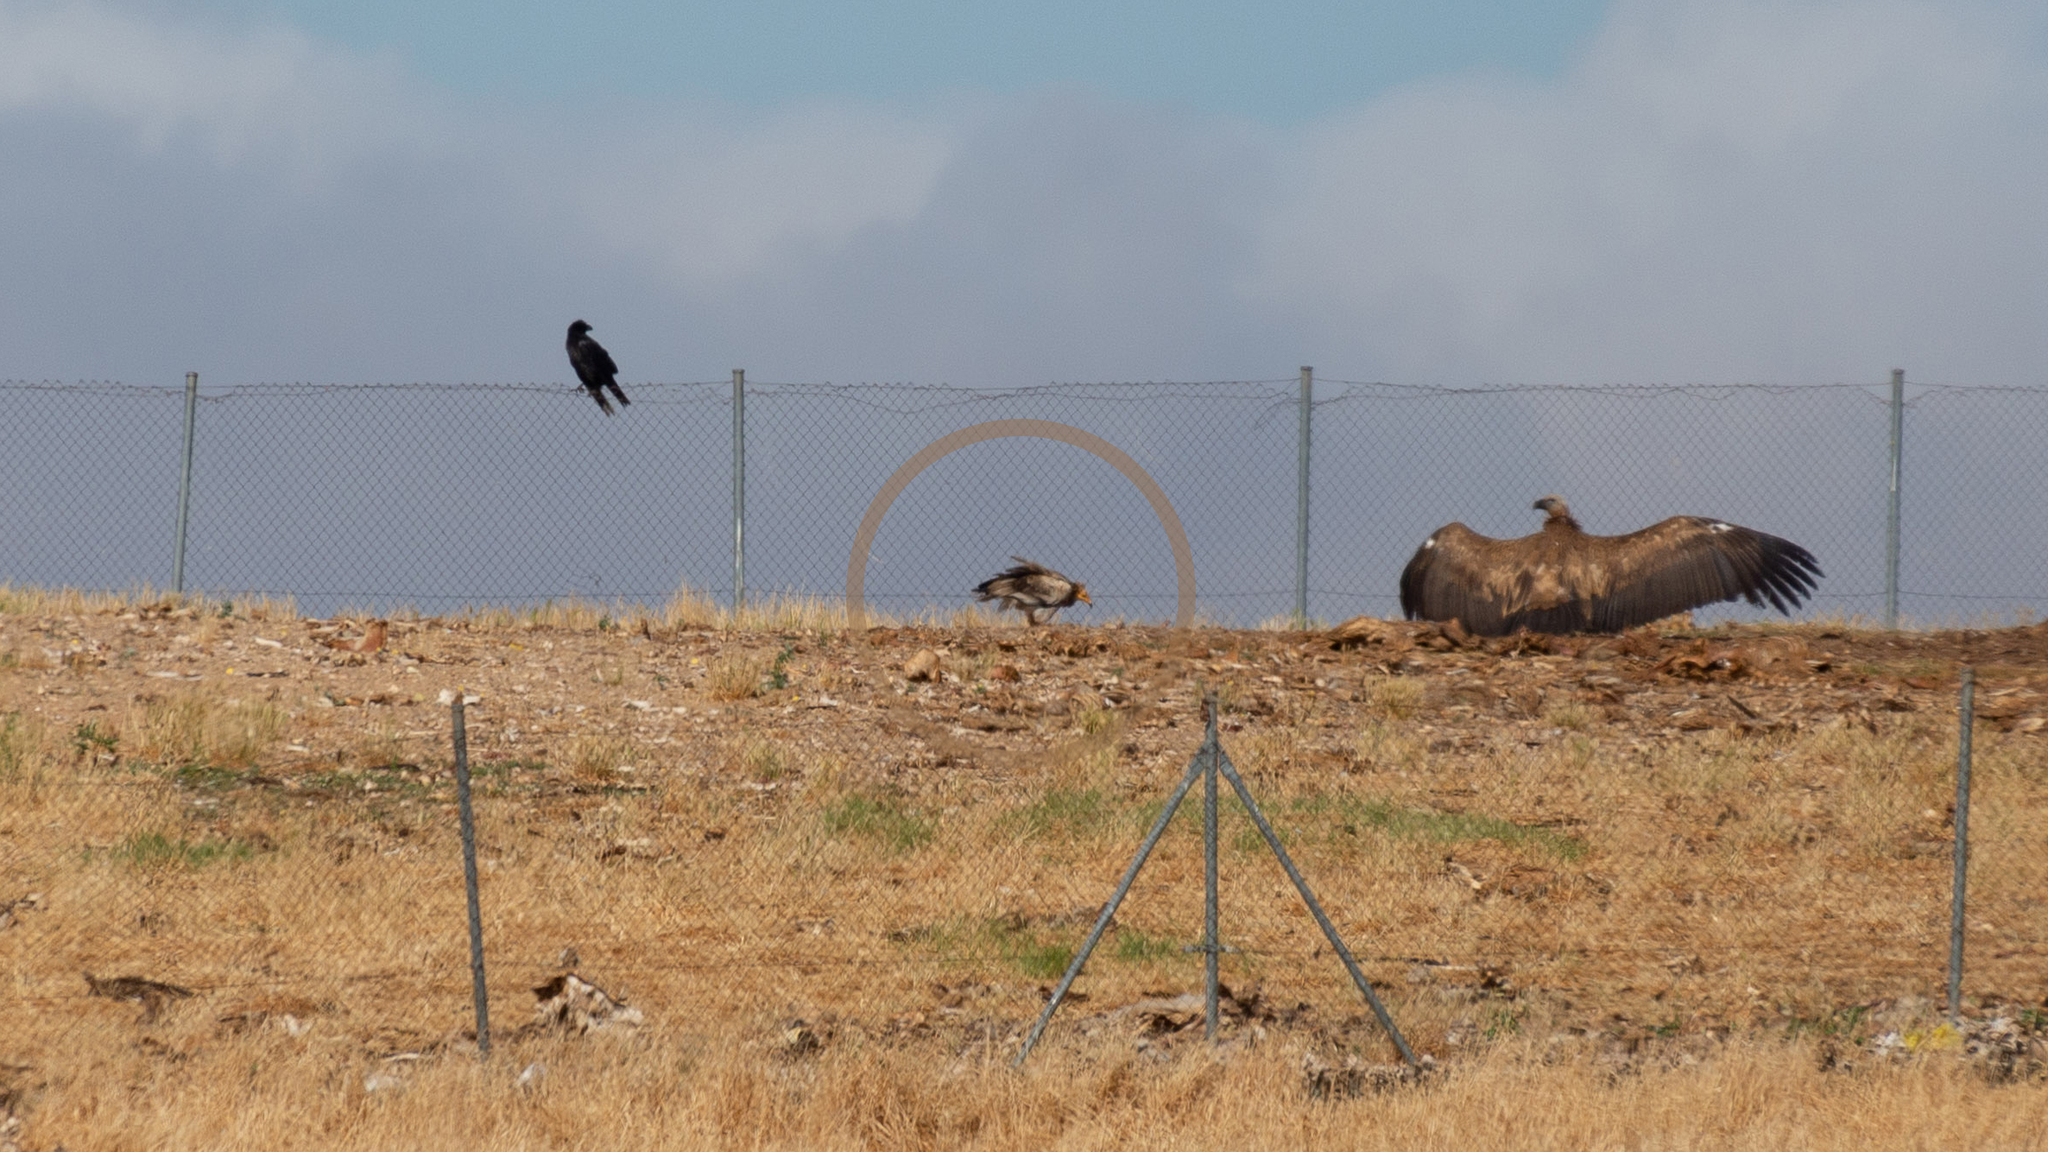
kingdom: Animalia
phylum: Chordata
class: Aves
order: Accipitriformes
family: Accipitridae
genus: Neophron
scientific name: Neophron percnopterus
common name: Egyptian vulture
